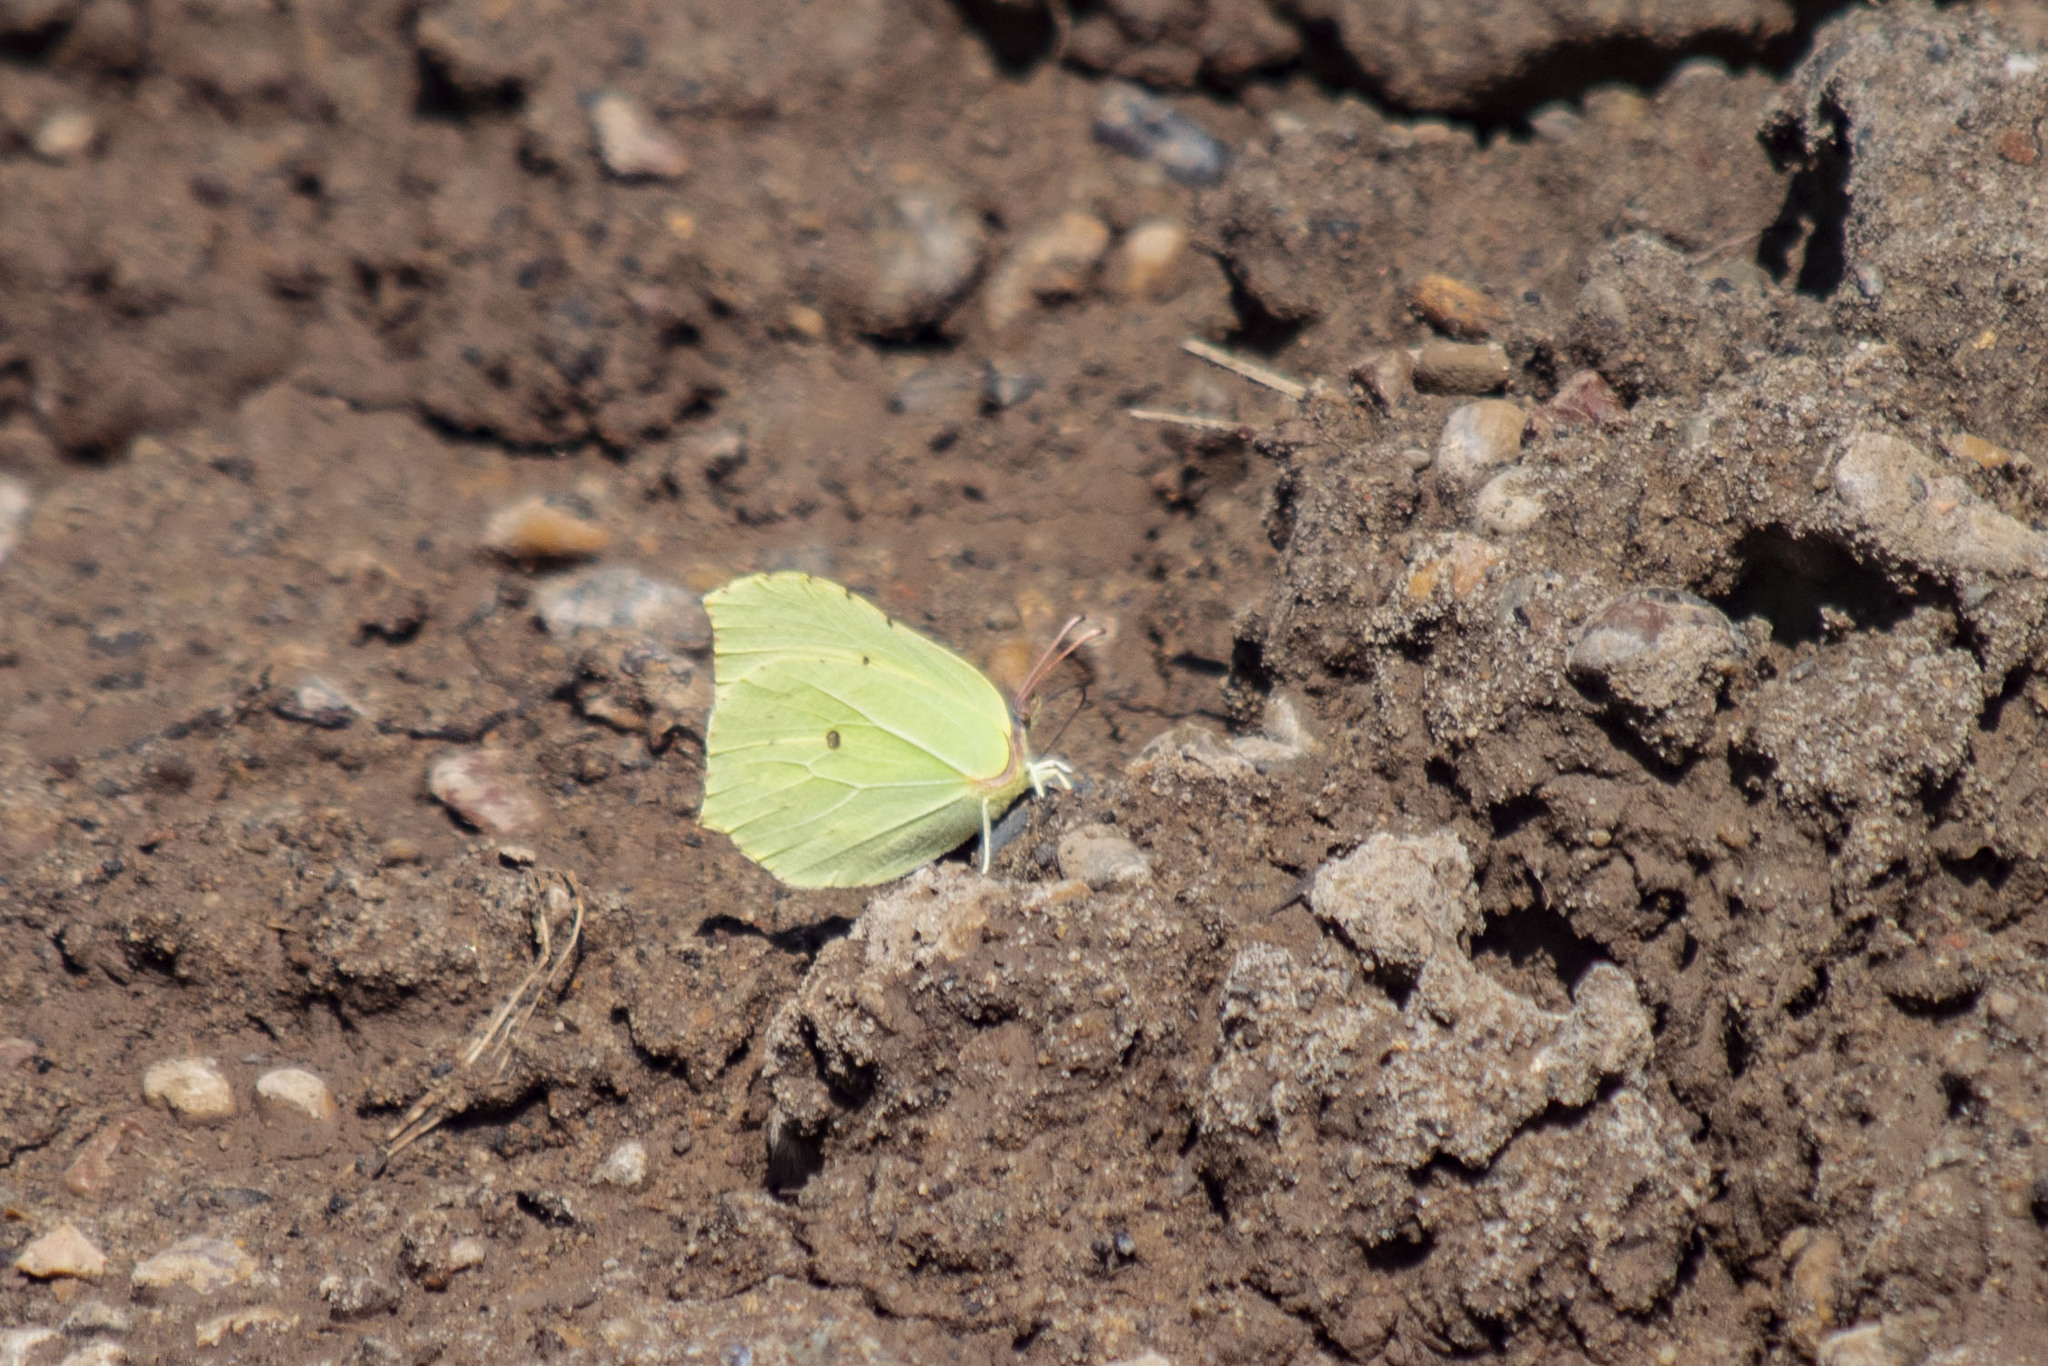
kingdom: Animalia
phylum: Arthropoda
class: Insecta
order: Lepidoptera
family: Pieridae
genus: Gonepteryx
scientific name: Gonepteryx rhamni
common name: Brimstone
